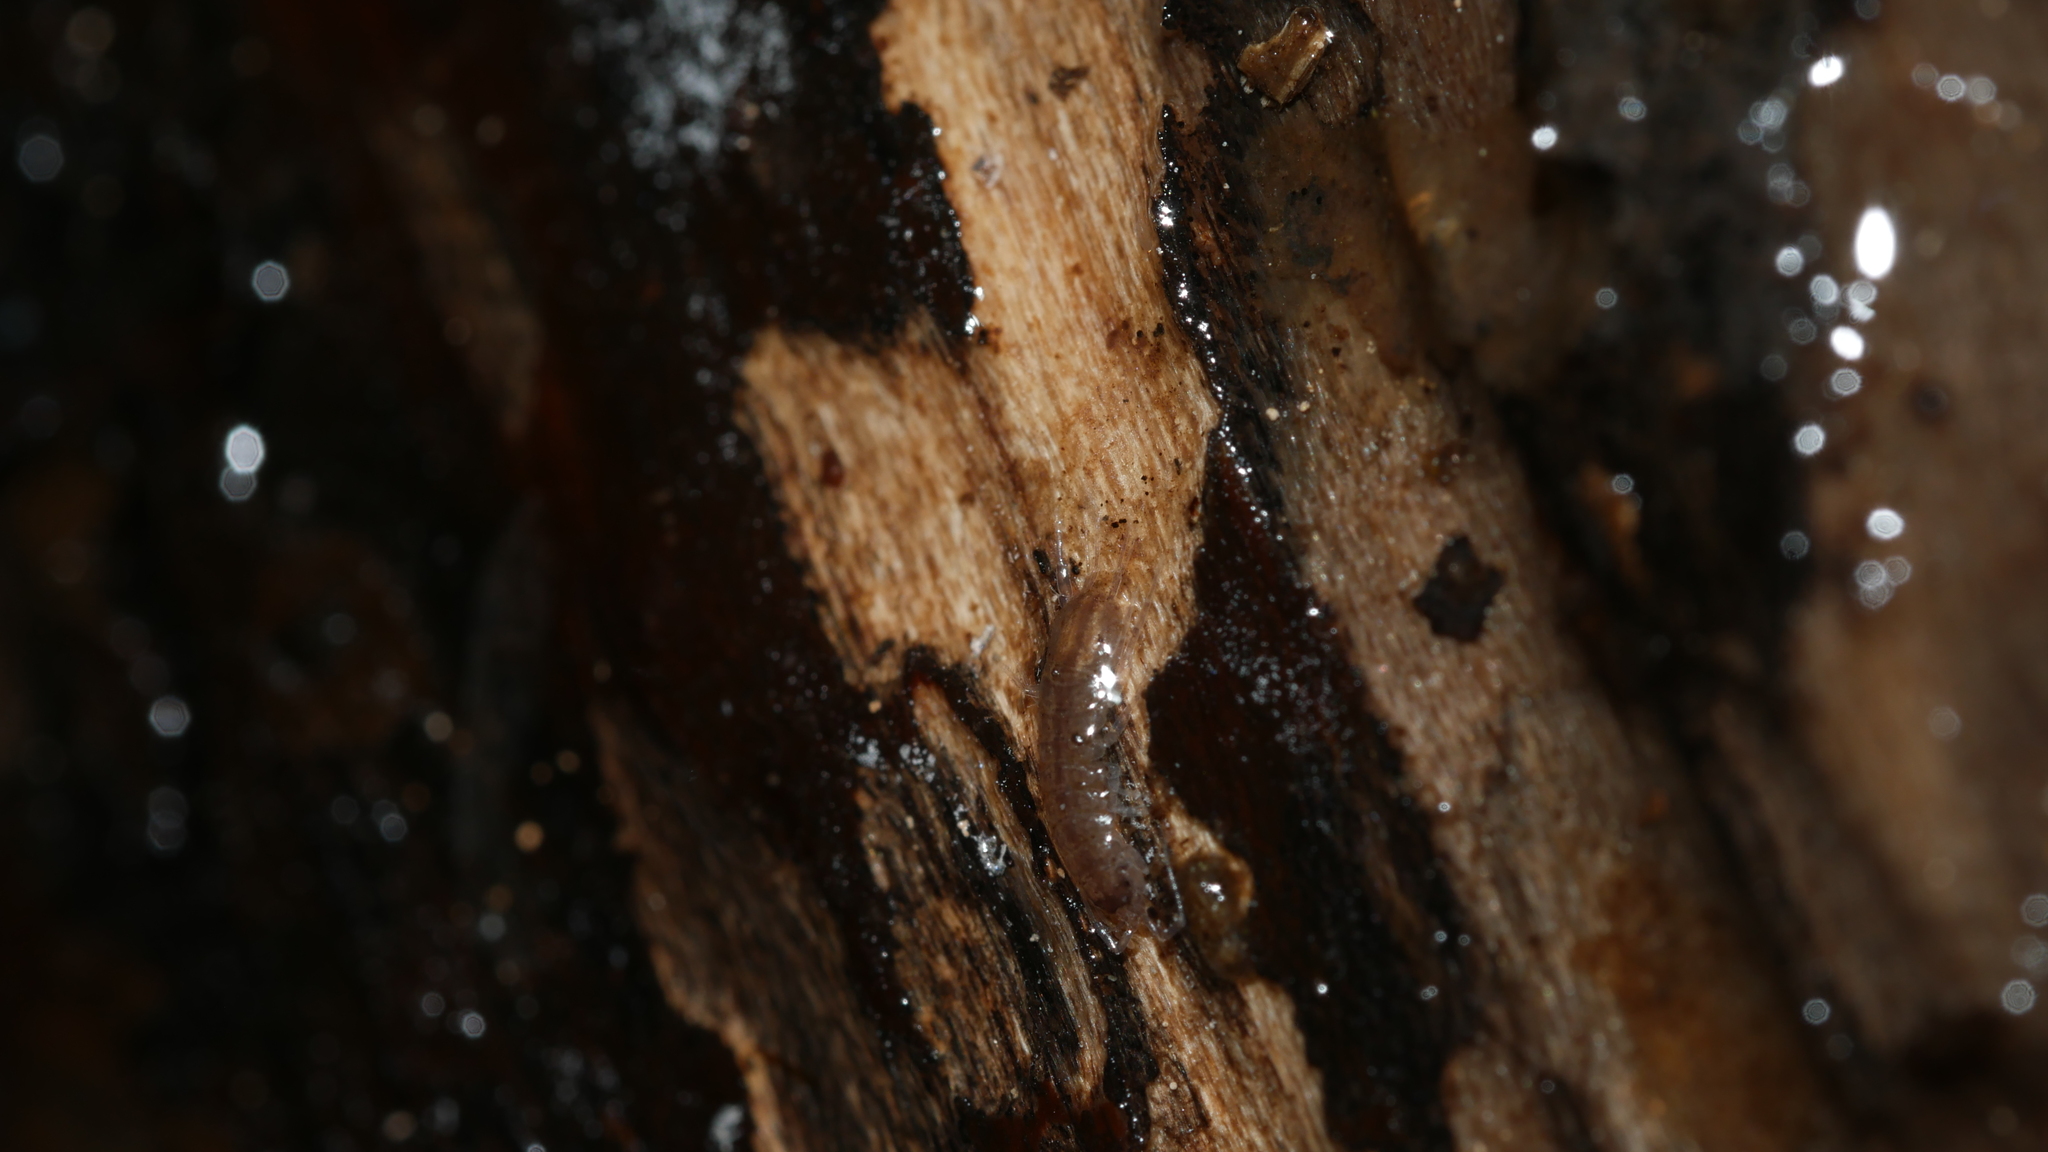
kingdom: Animalia
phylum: Arthropoda
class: Malacostraca
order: Isopoda
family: Asellidae
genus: Caecidotea
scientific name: Caecidotea nodula
